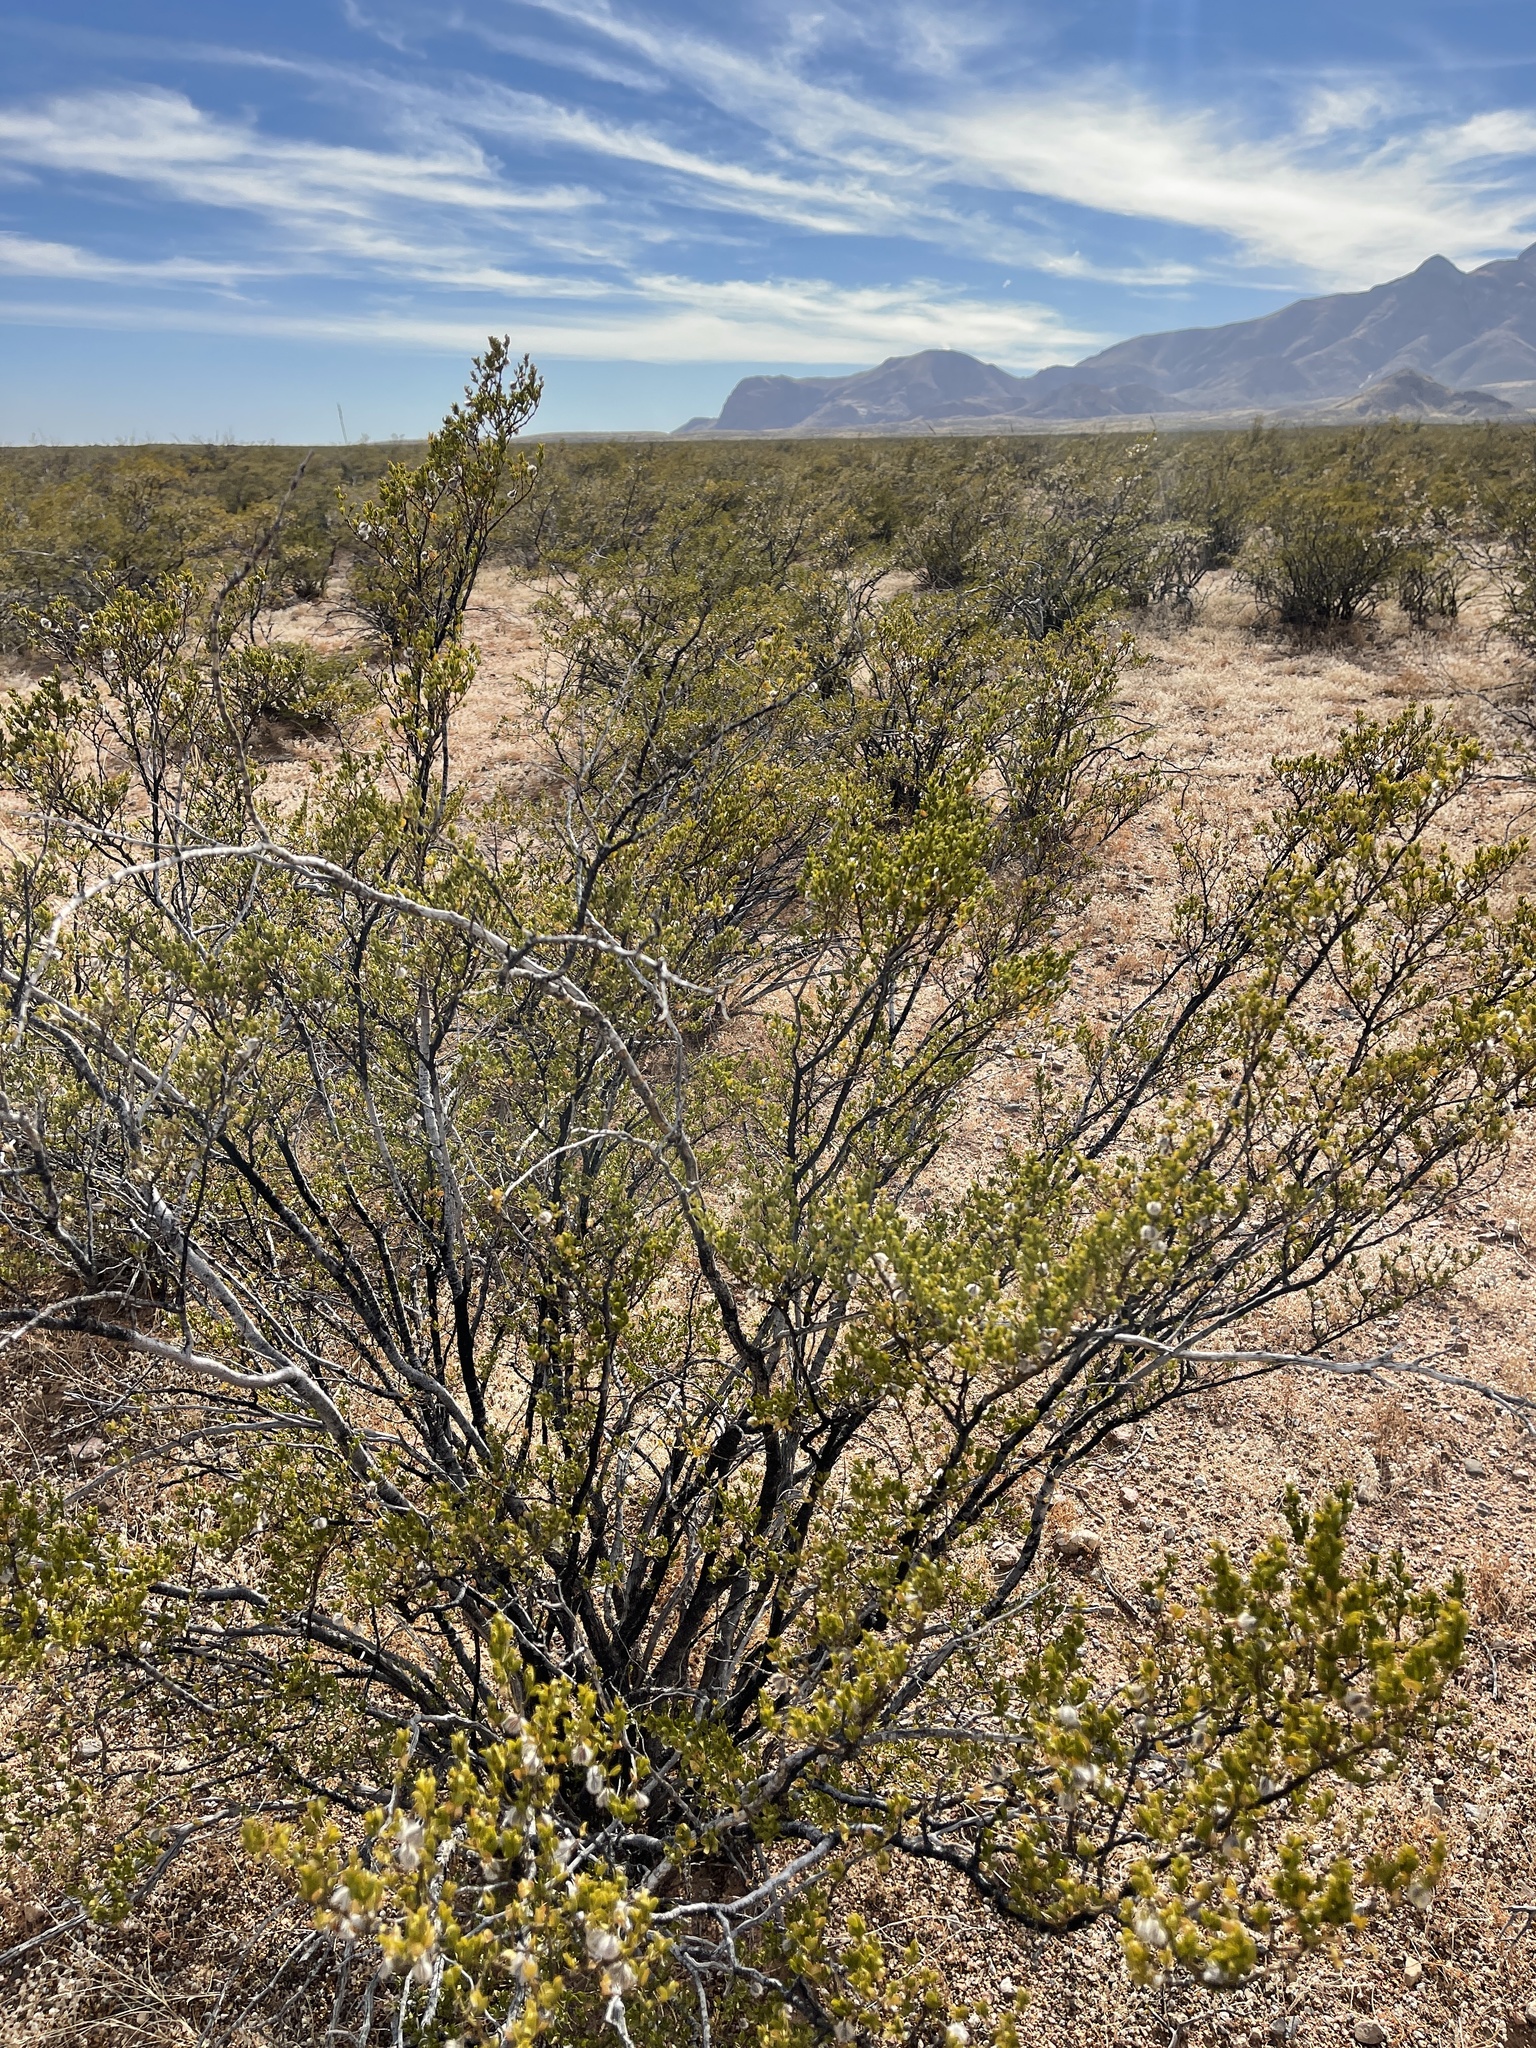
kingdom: Plantae
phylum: Tracheophyta
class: Magnoliopsida
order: Zygophyllales
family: Zygophyllaceae
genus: Larrea
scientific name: Larrea tridentata
